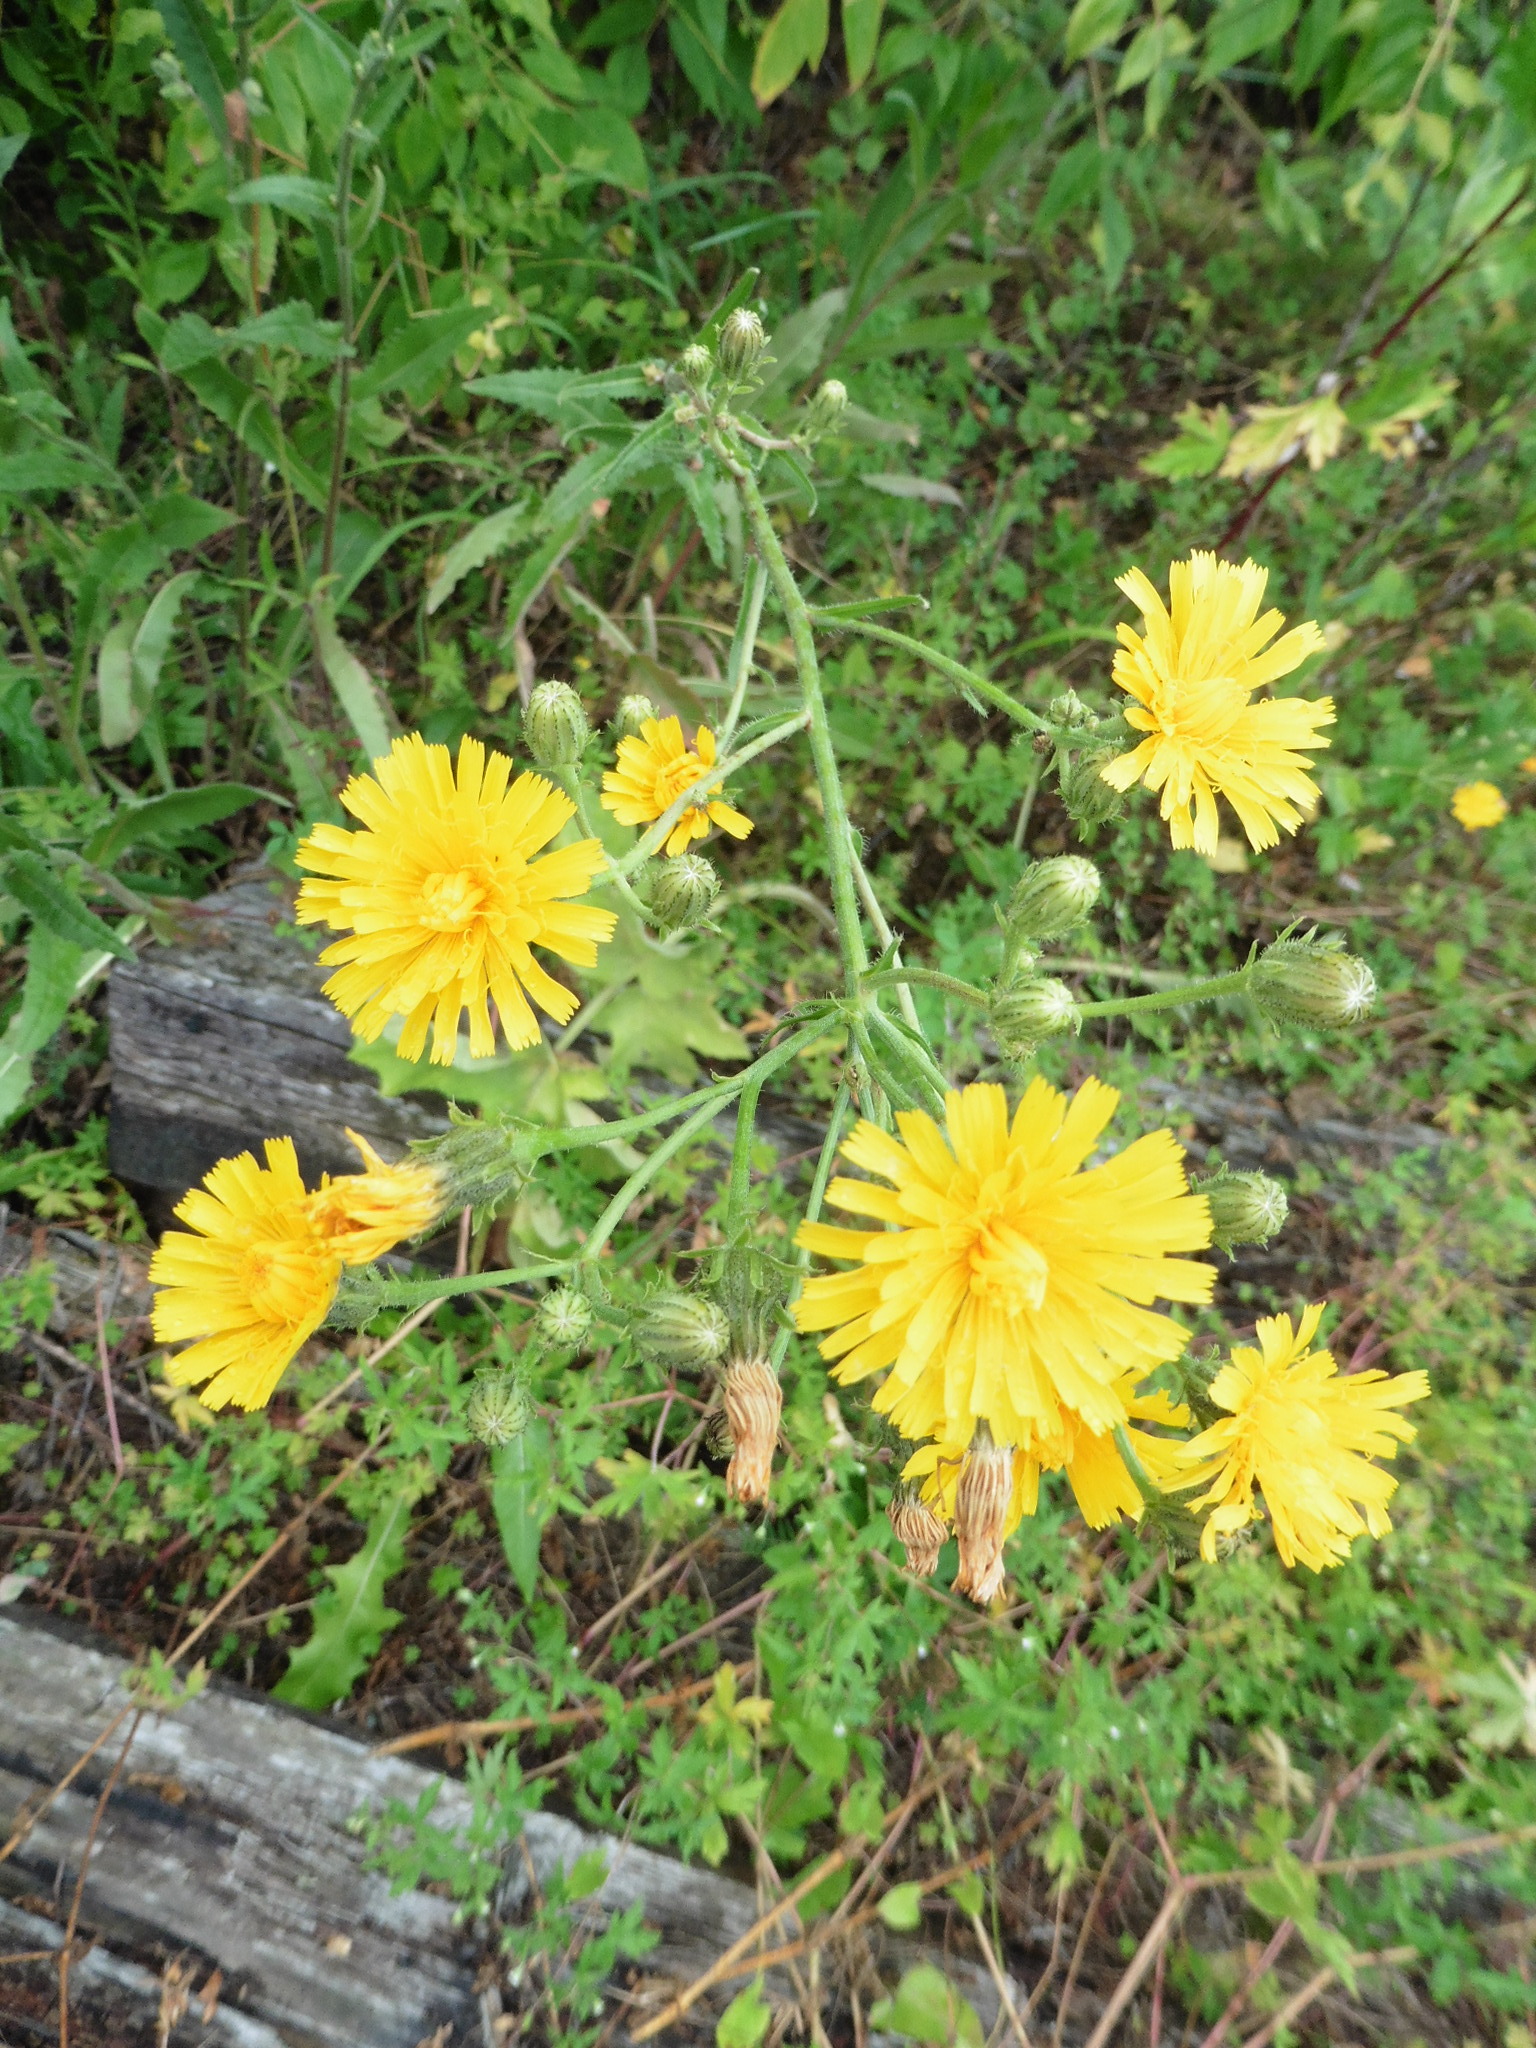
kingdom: Plantae
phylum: Tracheophyta
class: Magnoliopsida
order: Asterales
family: Asteraceae
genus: Picris
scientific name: Picris hieracioides
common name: Hawkweed oxtongue
